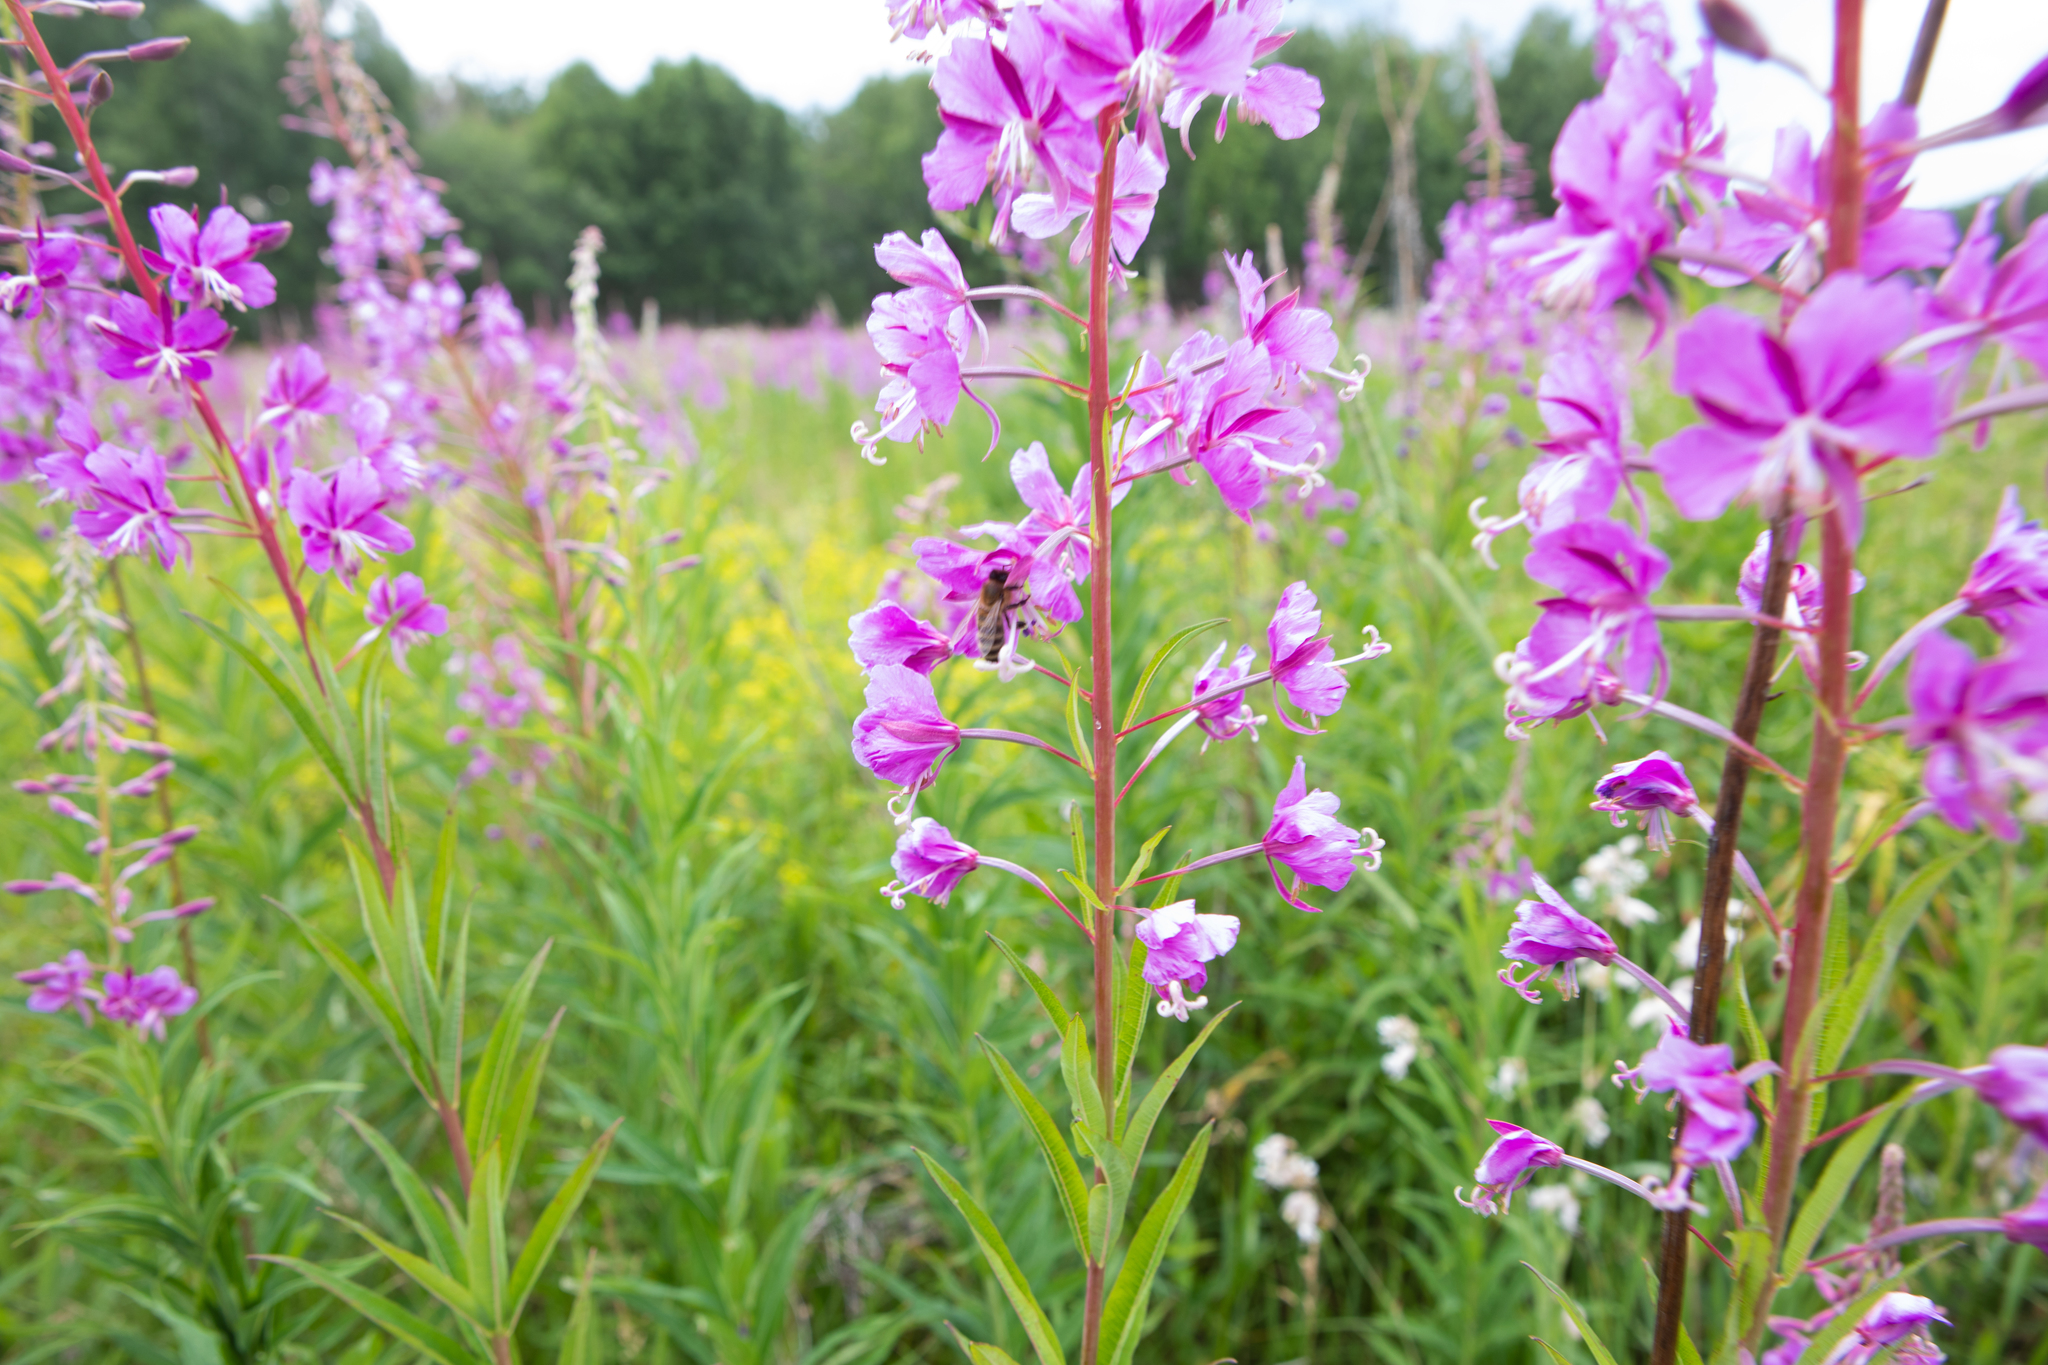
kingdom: Plantae
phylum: Tracheophyta
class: Magnoliopsida
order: Myrtales
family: Onagraceae
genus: Chamaenerion
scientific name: Chamaenerion angustifolium
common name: Fireweed
